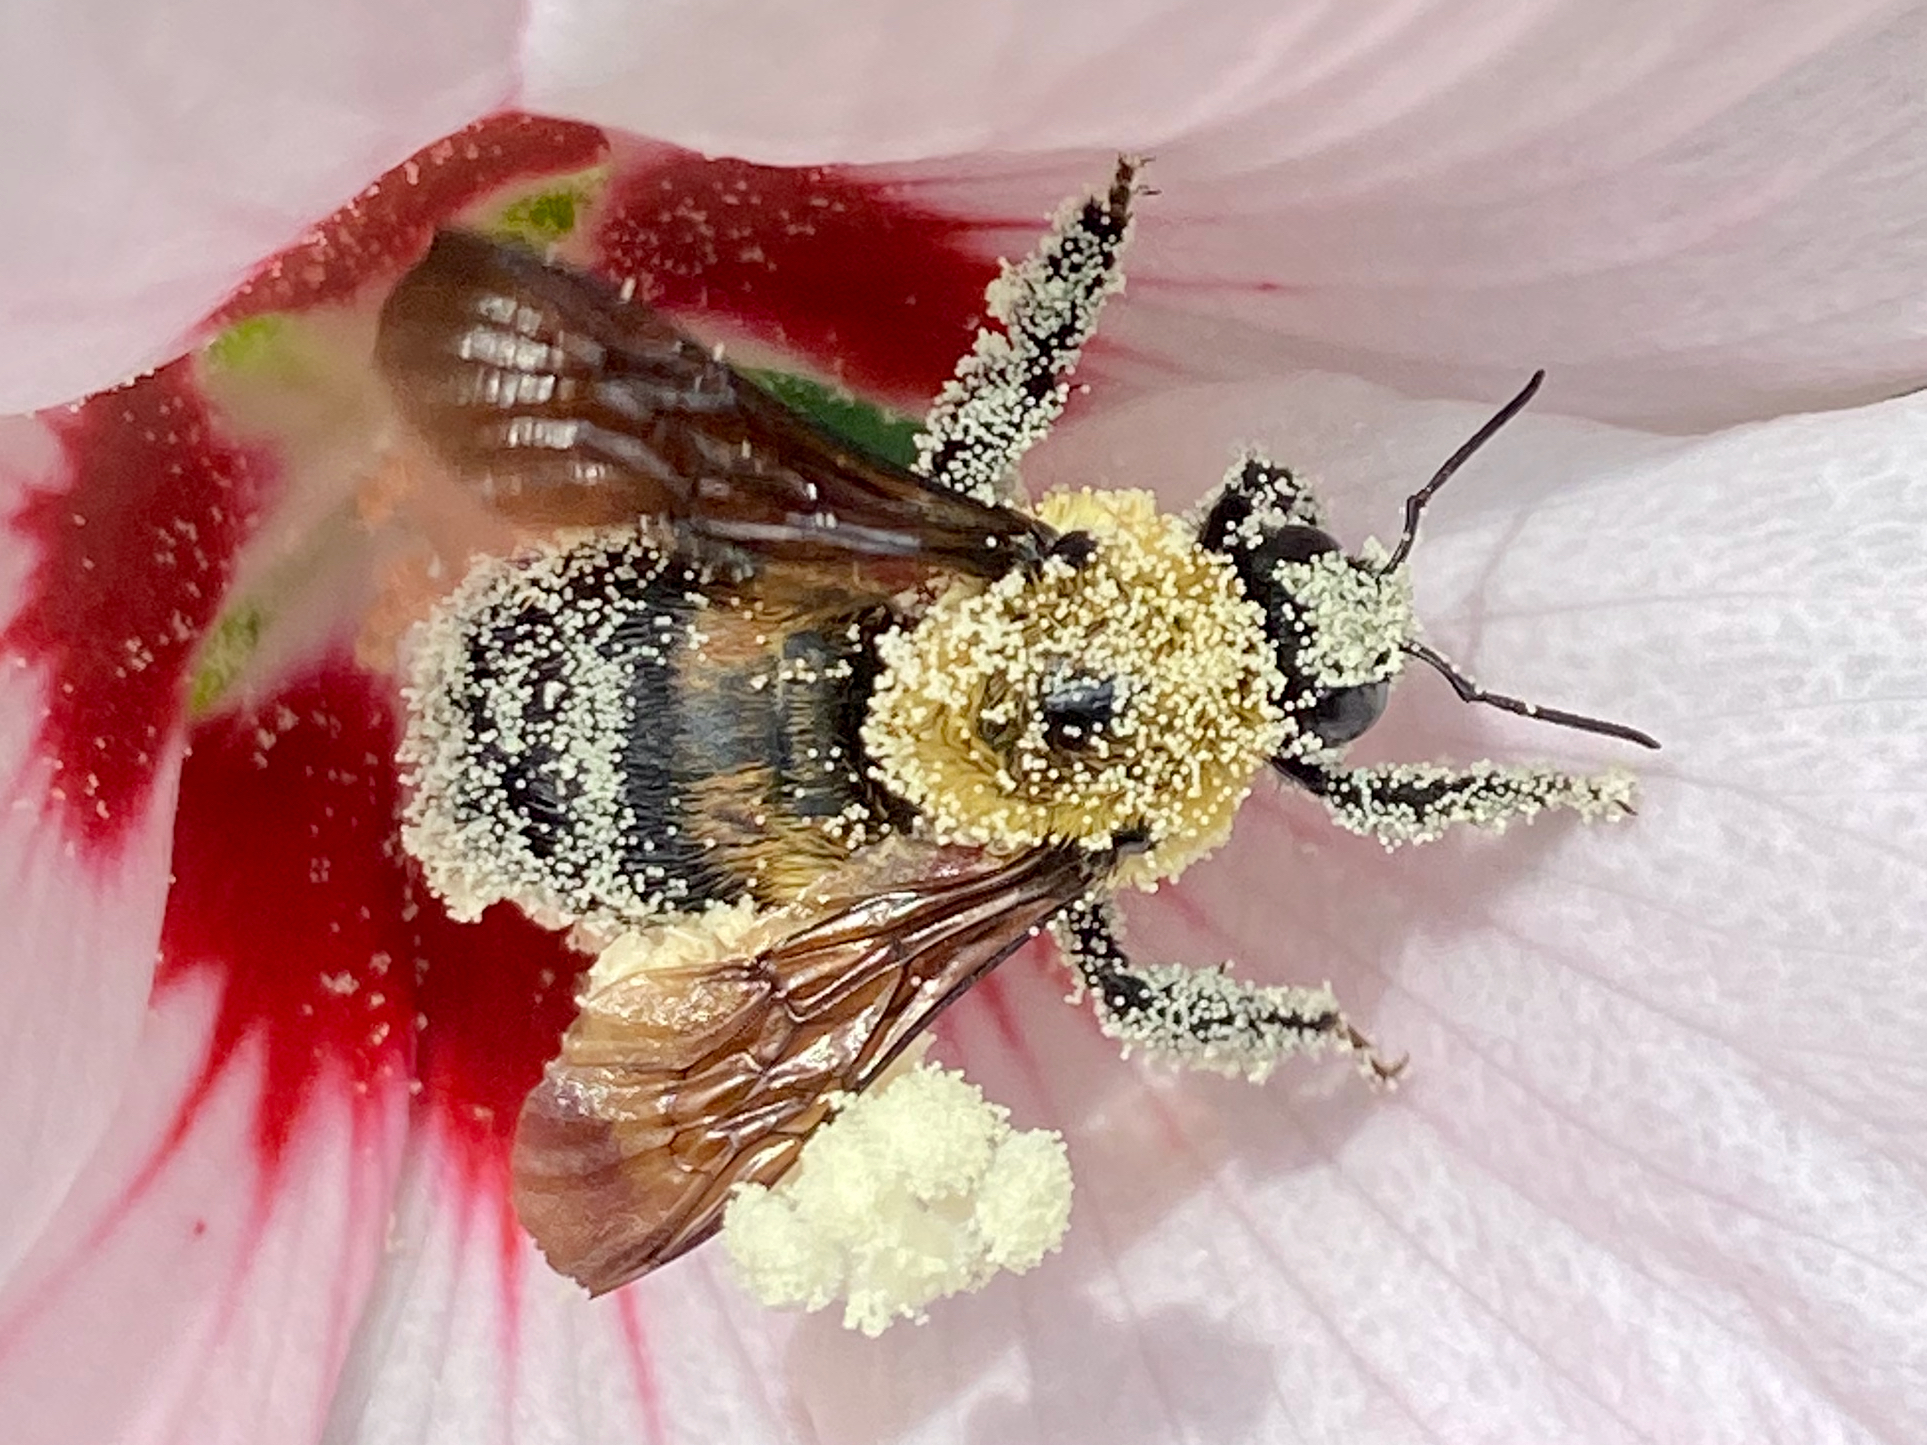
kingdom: Animalia
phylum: Arthropoda
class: Insecta
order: Hymenoptera
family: Apidae
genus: Bombus
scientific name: Bombus griseocollis
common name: Brown-belted bumble bee
